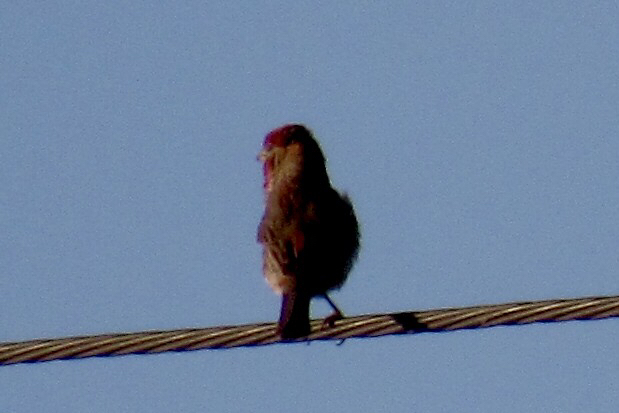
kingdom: Animalia
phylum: Chordata
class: Aves
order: Passeriformes
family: Fringillidae
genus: Haemorhous
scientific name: Haemorhous mexicanus
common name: House finch
